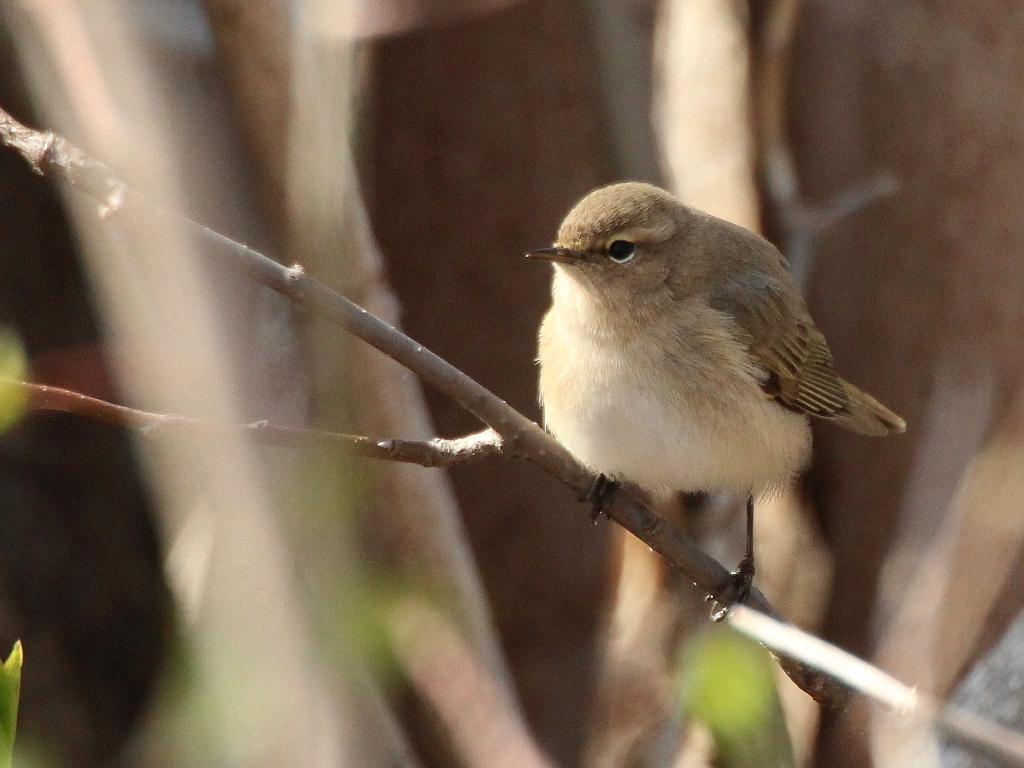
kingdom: Animalia
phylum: Chordata
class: Aves
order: Passeriformes
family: Phylloscopidae
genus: Phylloscopus
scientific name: Phylloscopus collybita
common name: Common chiffchaff
